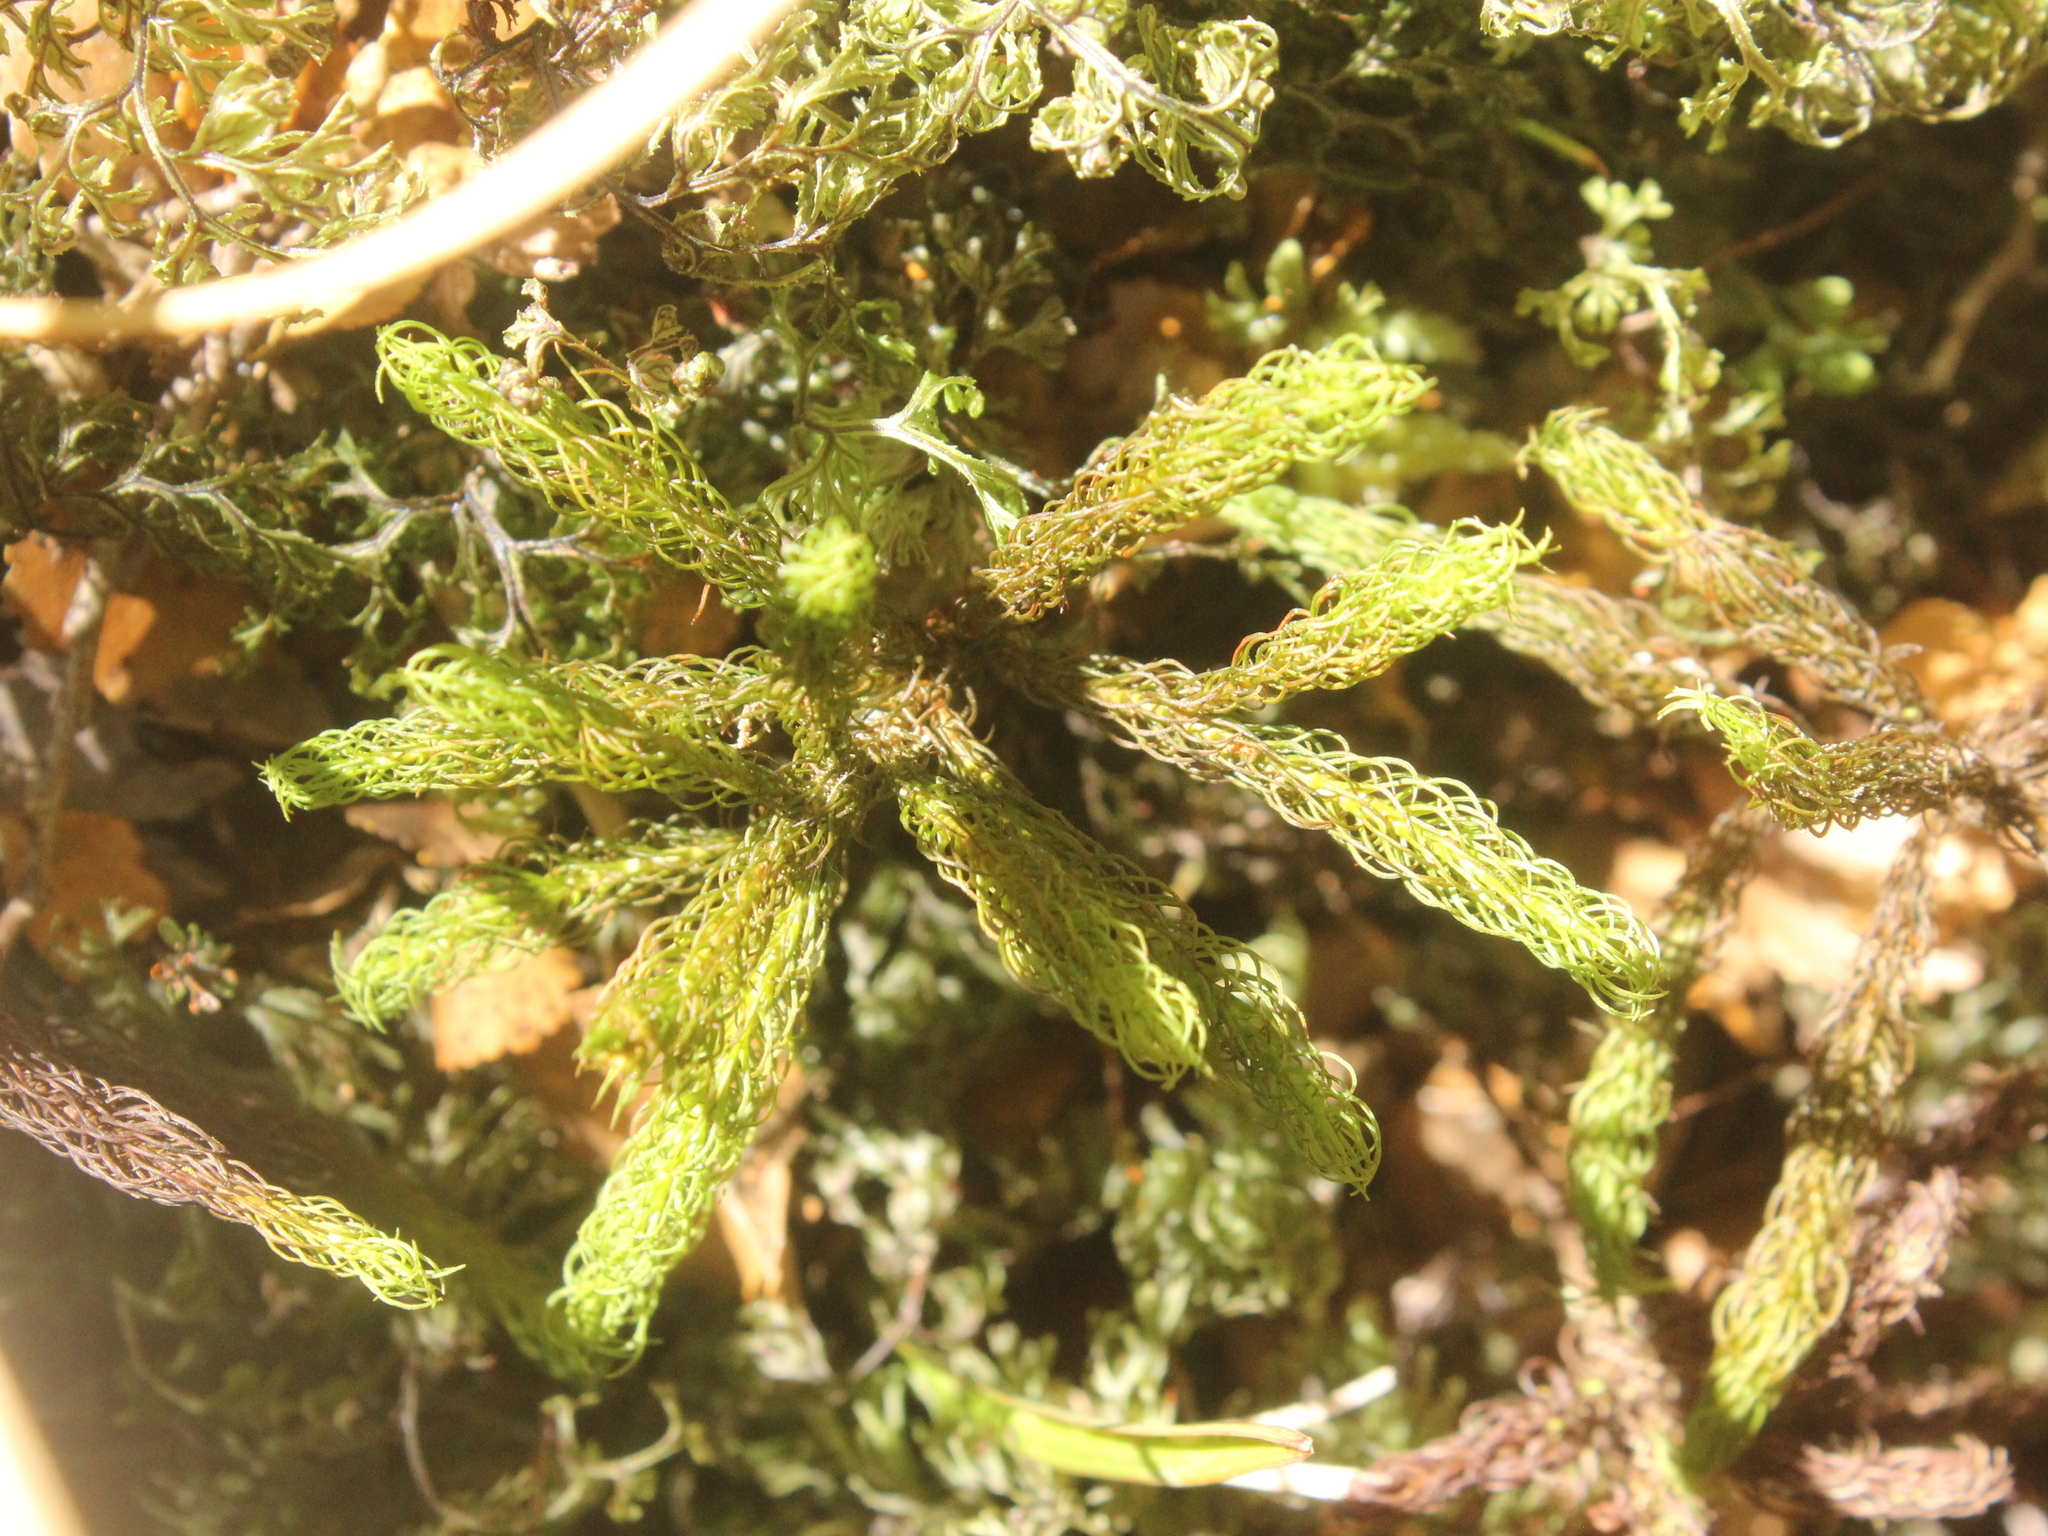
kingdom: Plantae
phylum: Bryophyta
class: Polytrichopsida
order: Polytrichales
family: Polytrichaceae
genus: Dendroligotrichum
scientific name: Dendroligotrichum tongariroense
